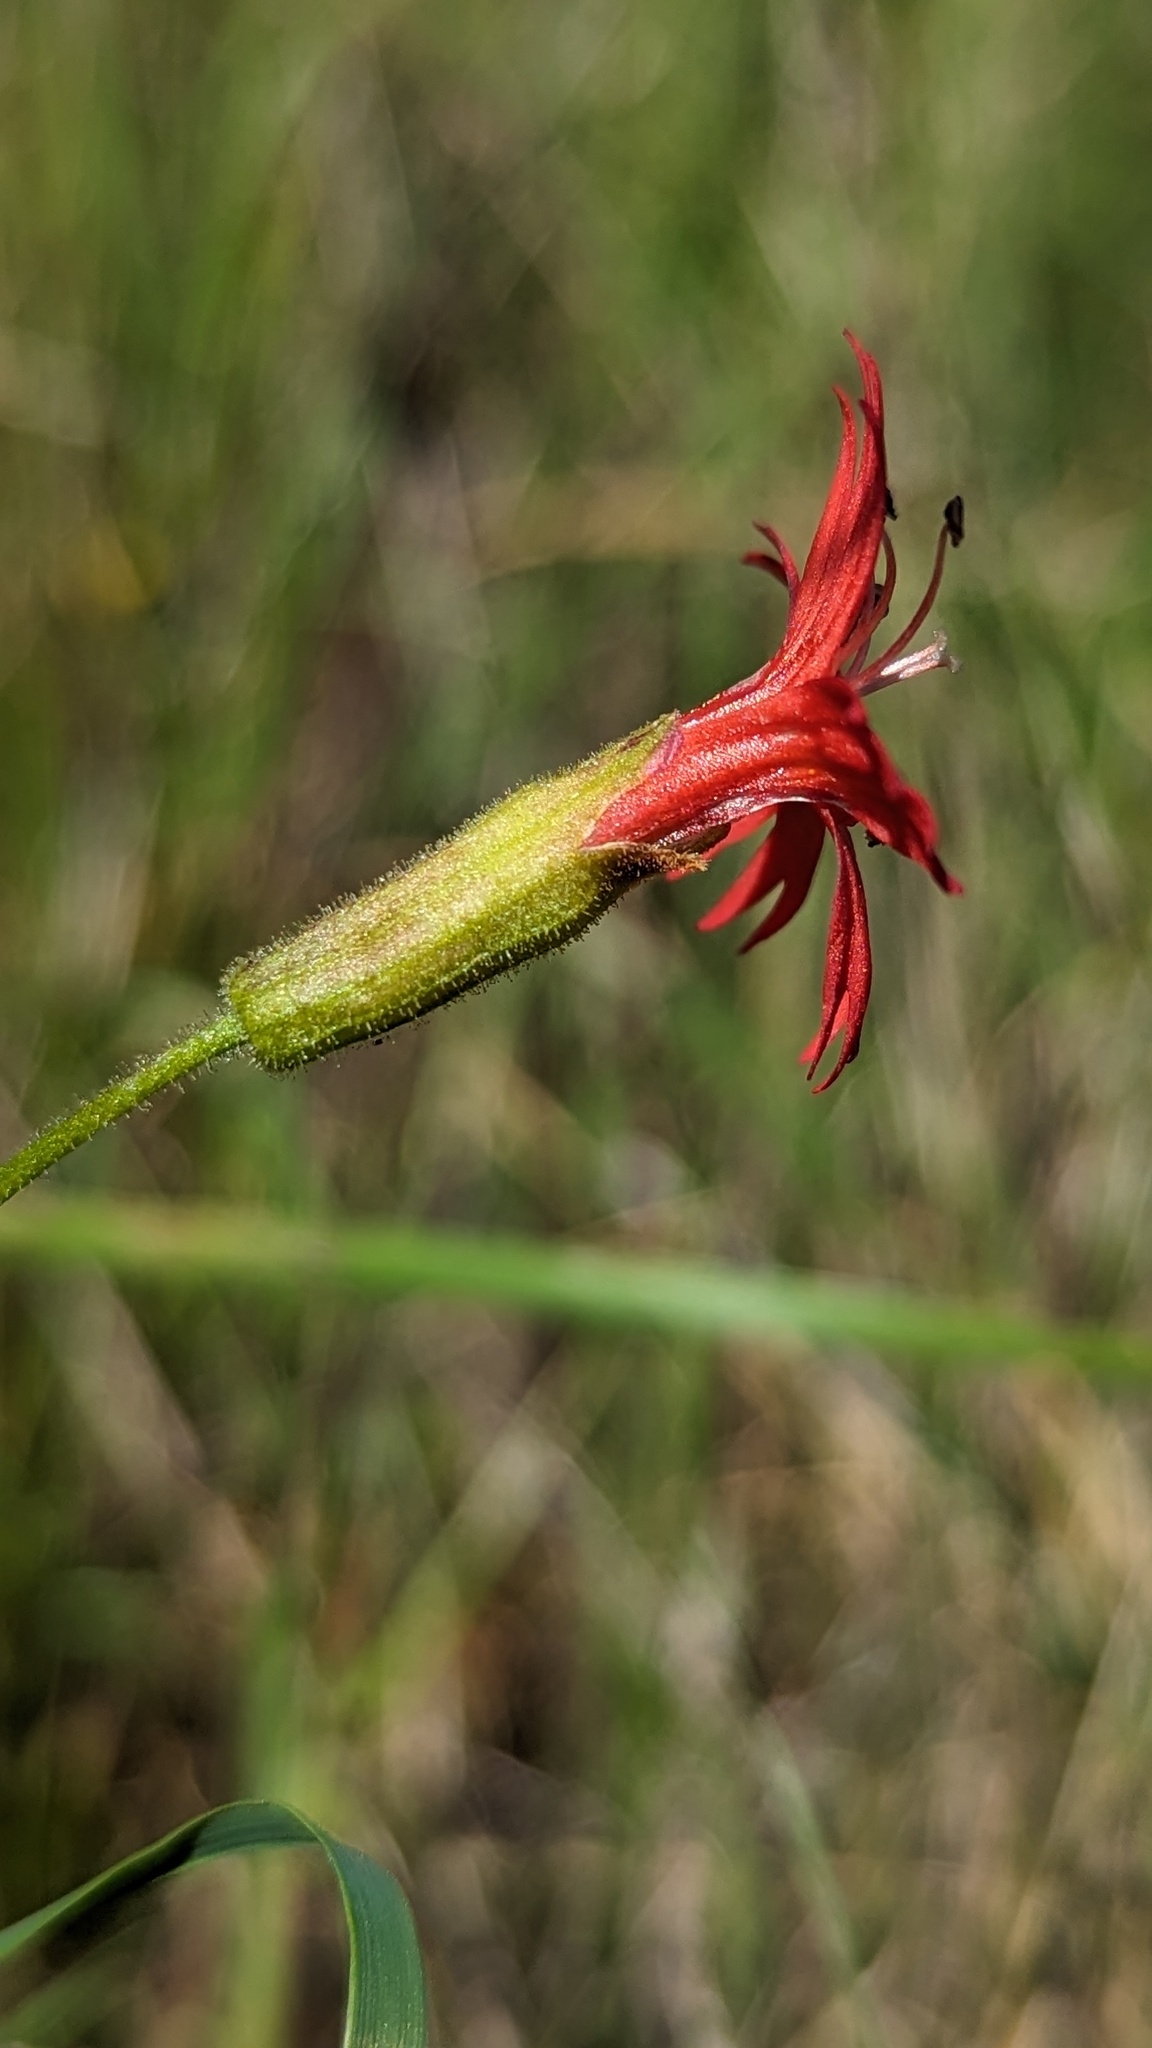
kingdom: Plantae
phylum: Tracheophyta
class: Magnoliopsida
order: Caryophyllales
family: Caryophyllaceae
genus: Silene
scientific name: Silene laciniata
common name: Indian-pink
